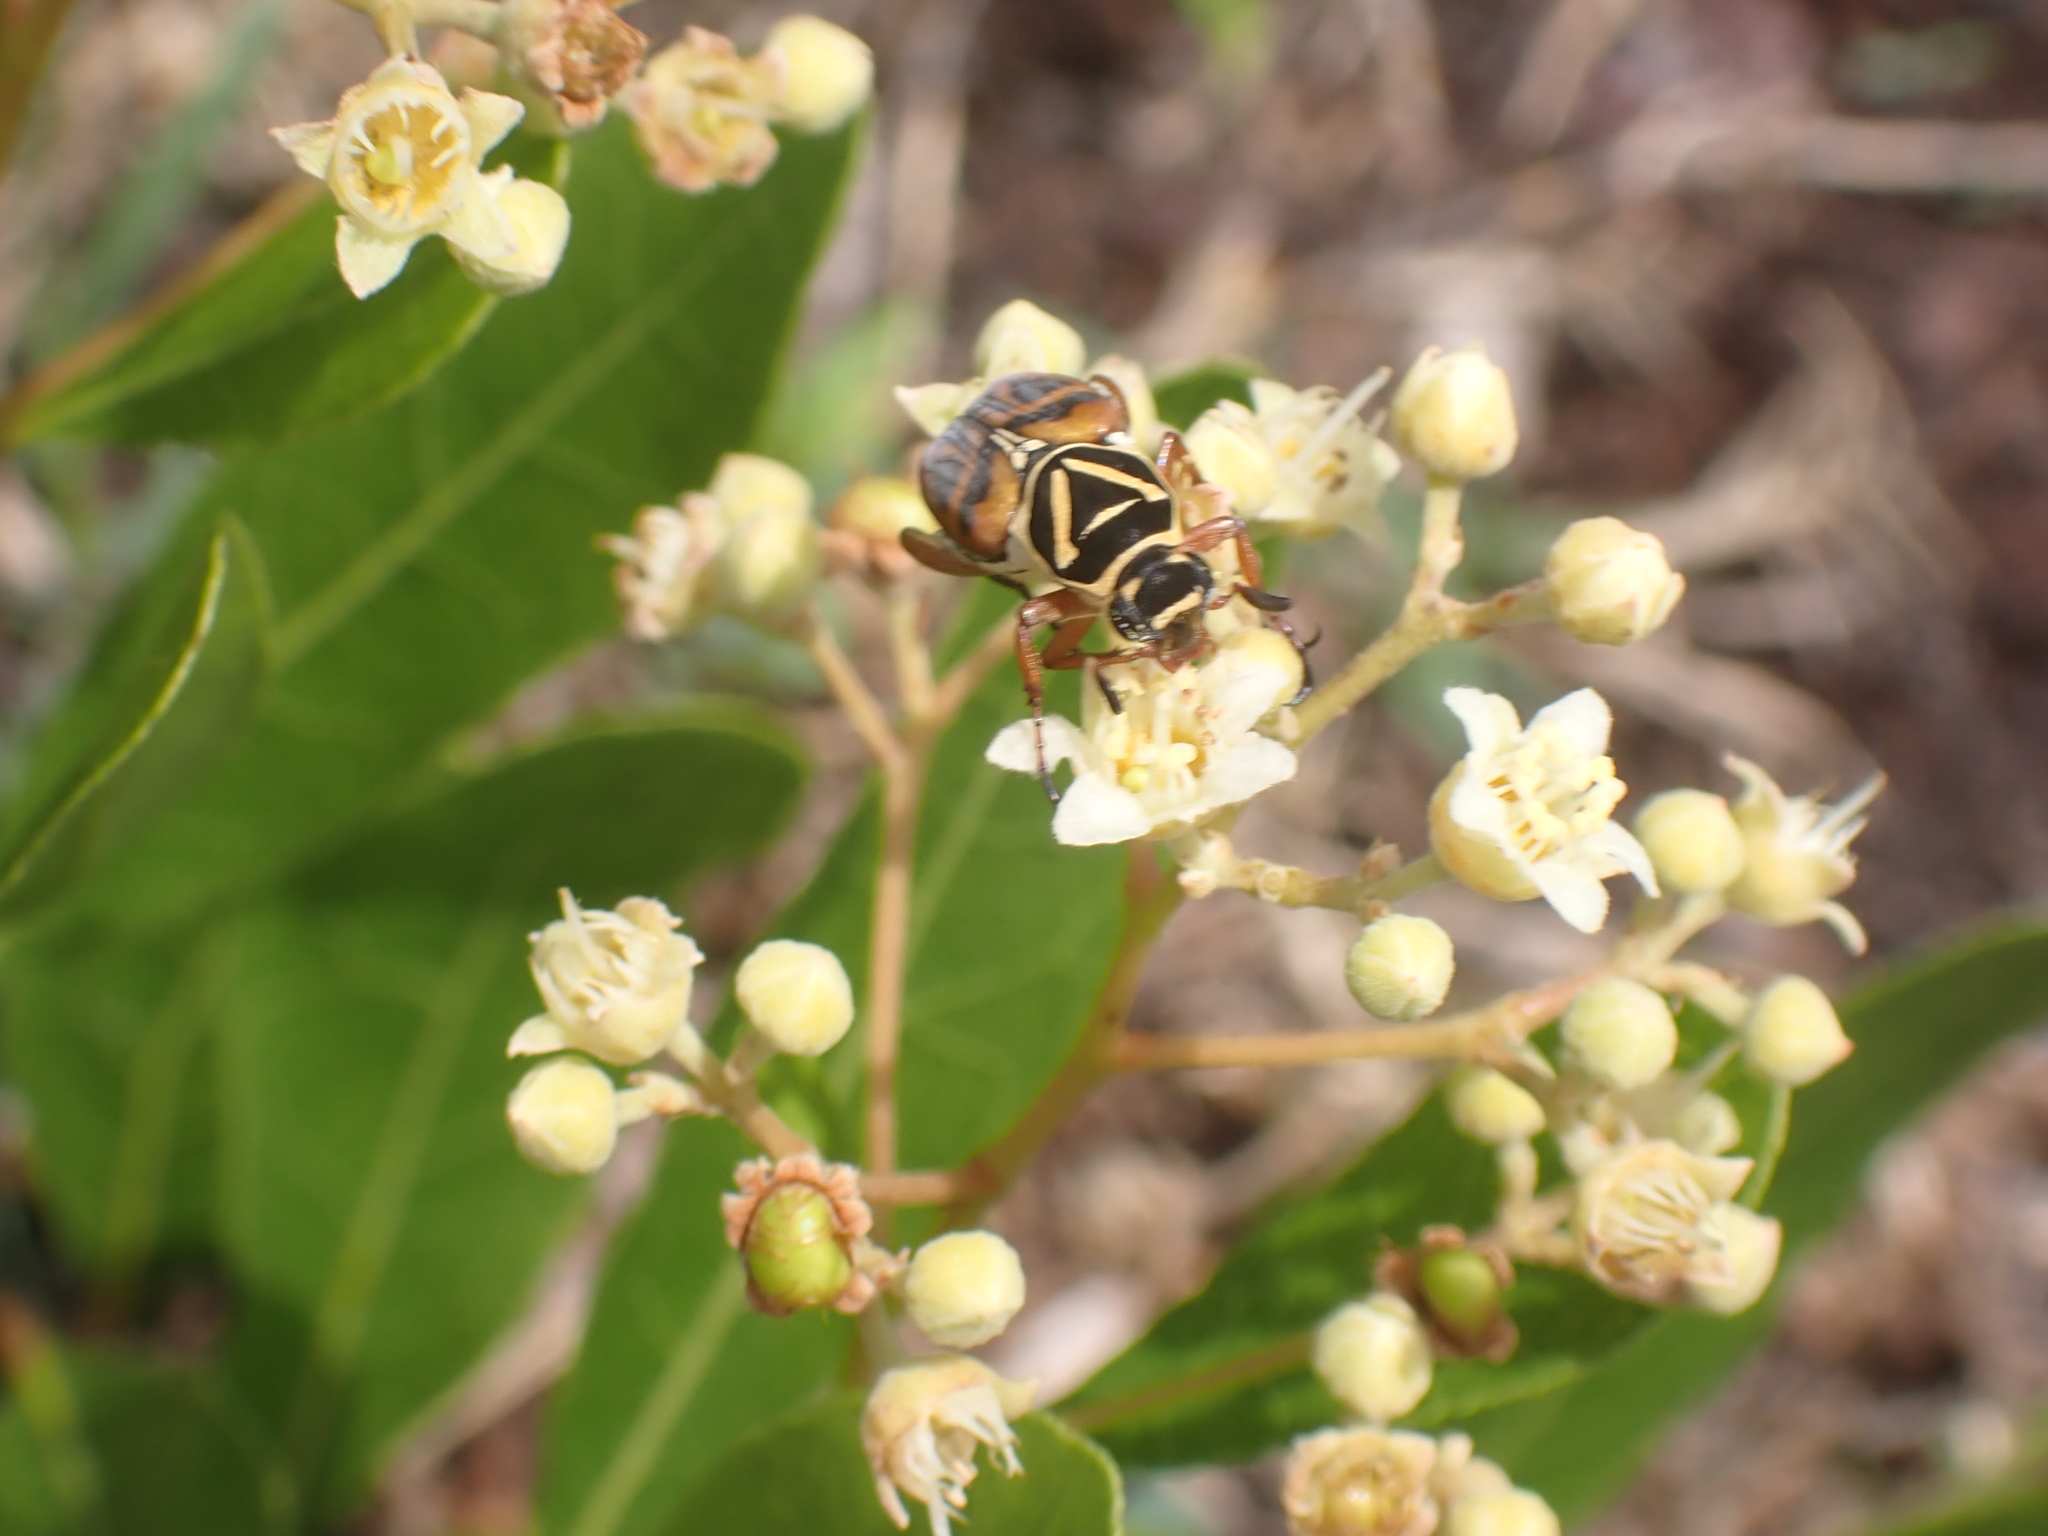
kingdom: Animalia
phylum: Arthropoda
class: Insecta
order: Coleoptera
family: Scarabaeidae
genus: Trigonopeltastes
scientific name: Trigonopeltastes delta
